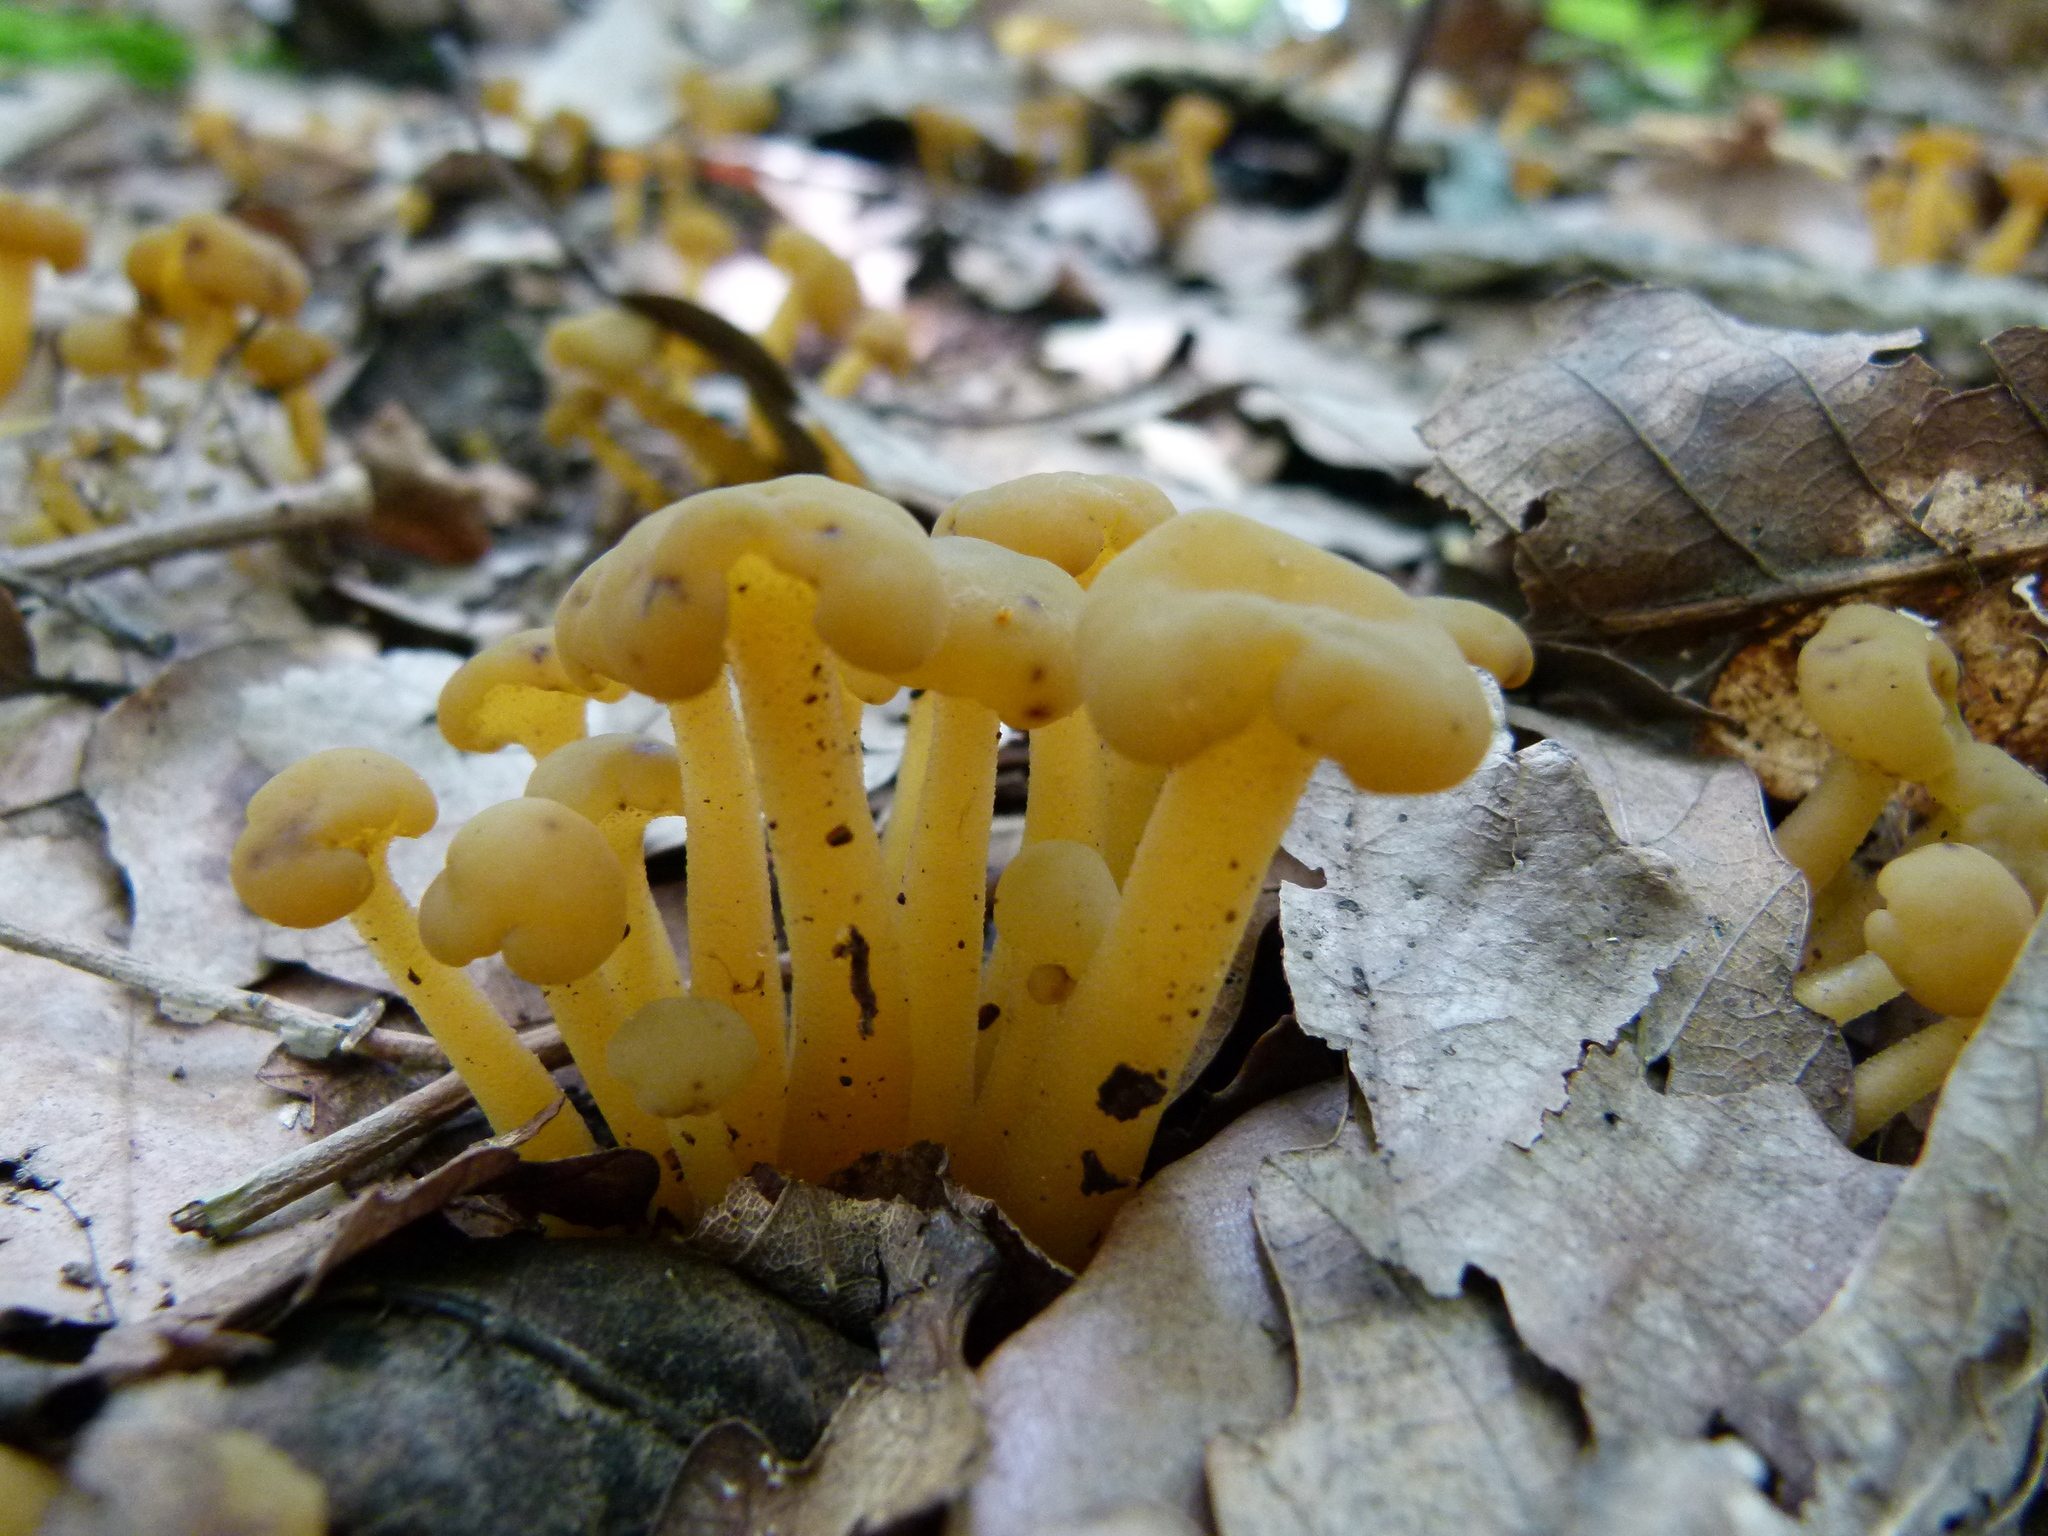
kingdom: Fungi
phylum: Ascomycota
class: Leotiomycetes
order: Leotiales
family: Leotiaceae
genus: Leotia
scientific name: Leotia lubrica
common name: Jellybaby
